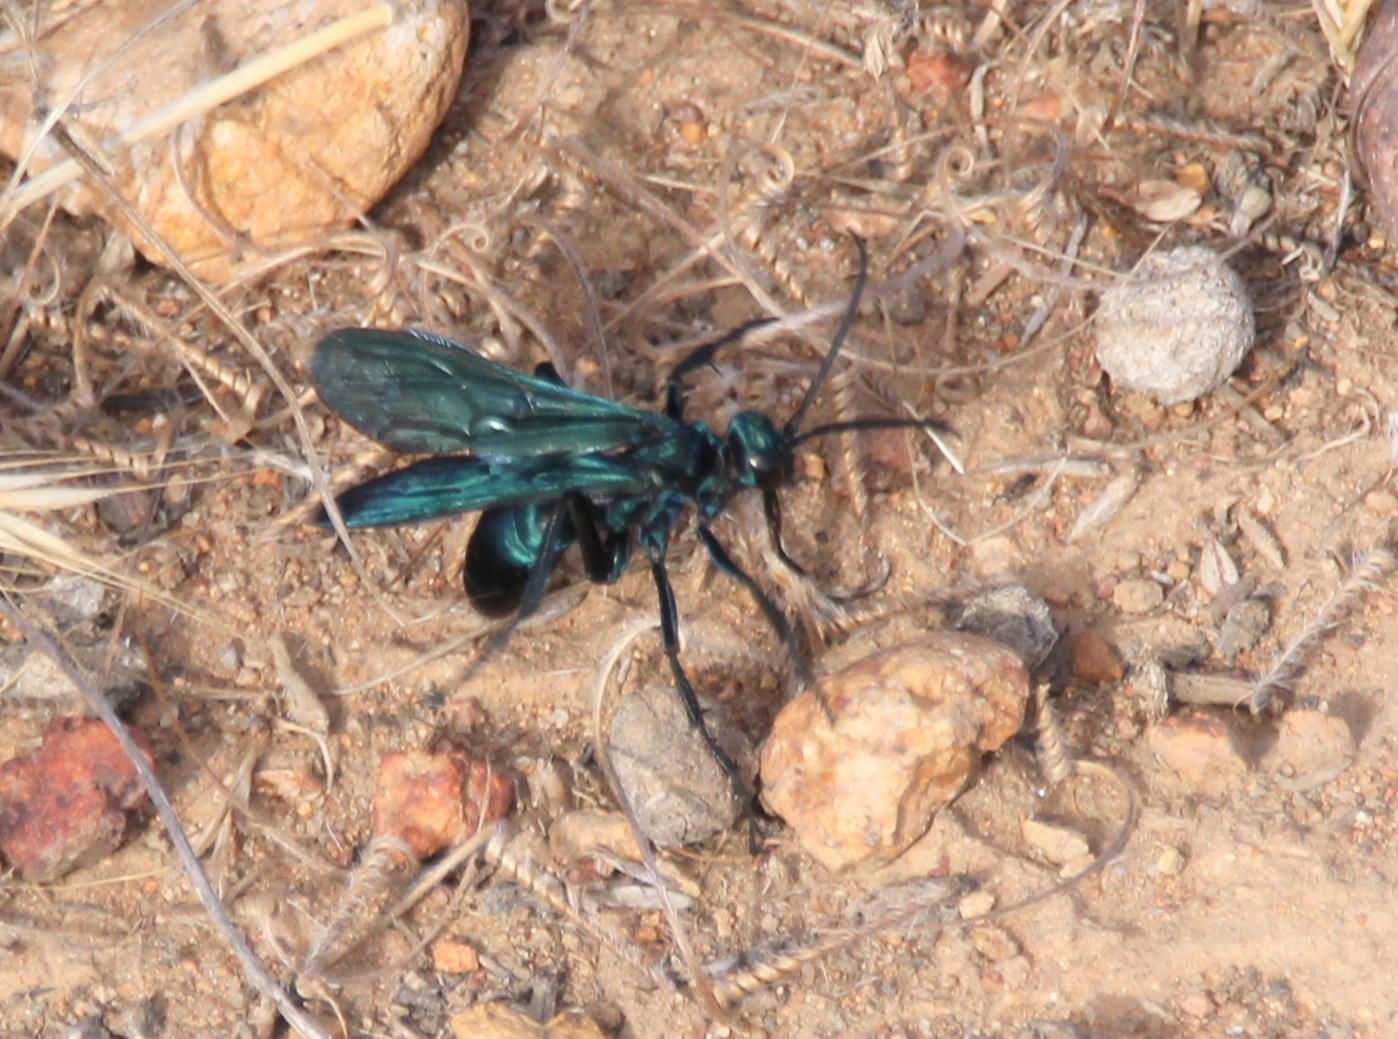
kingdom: Animalia
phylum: Arthropoda
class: Insecta
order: Hymenoptera
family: Pompilidae
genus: Pepsis
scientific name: Pepsis mexicana
